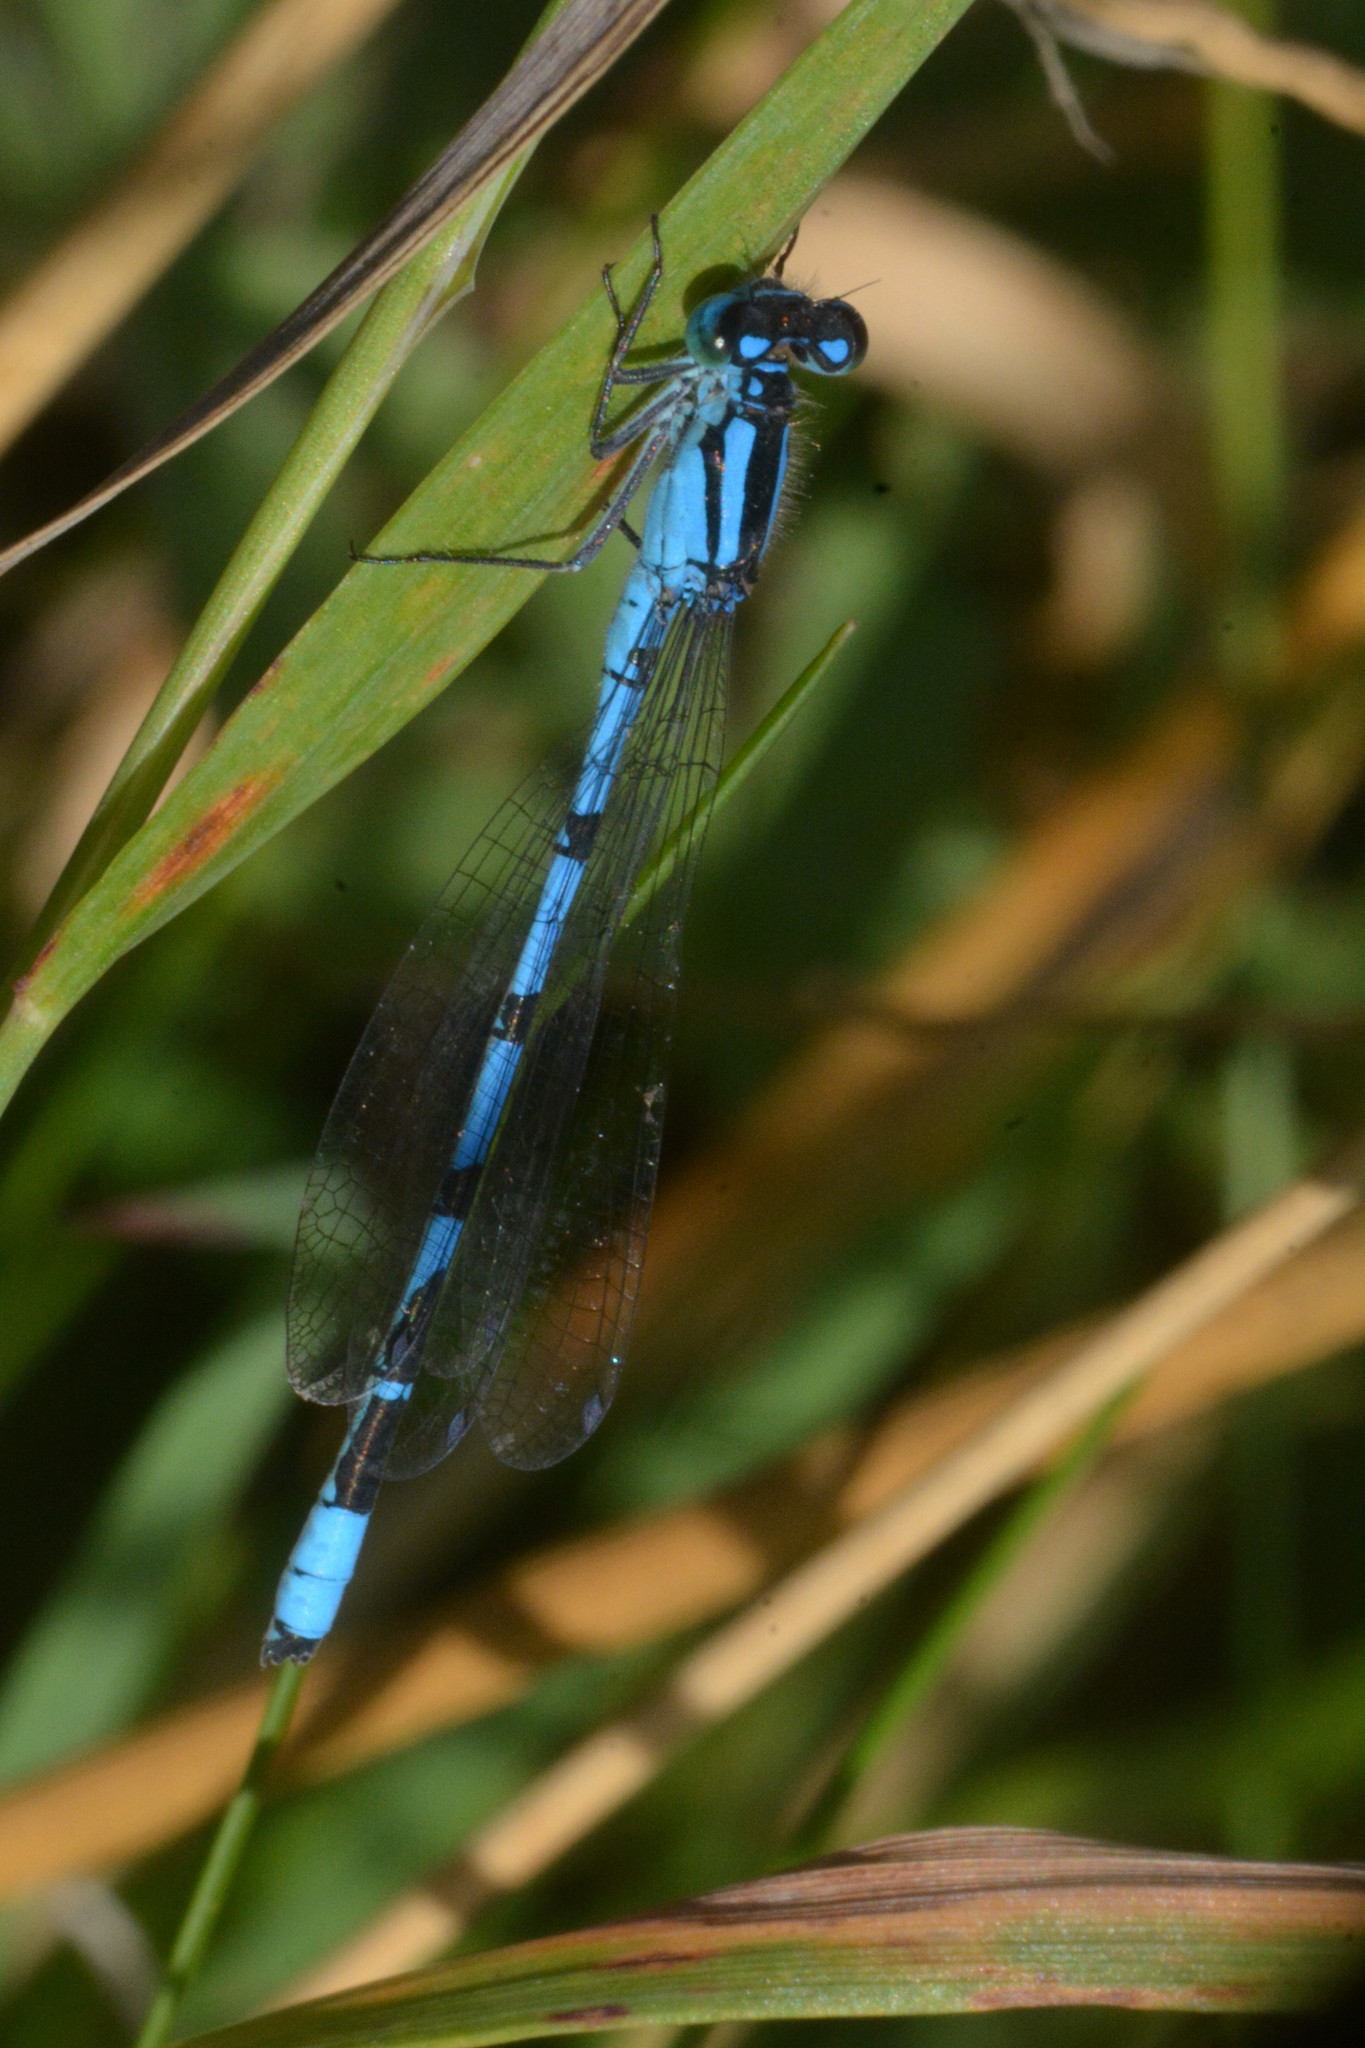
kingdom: Animalia
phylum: Arthropoda
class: Insecta
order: Odonata
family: Coenagrionidae
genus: Enallagma
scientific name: Enallagma cyathigerum
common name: Common blue damselfly
